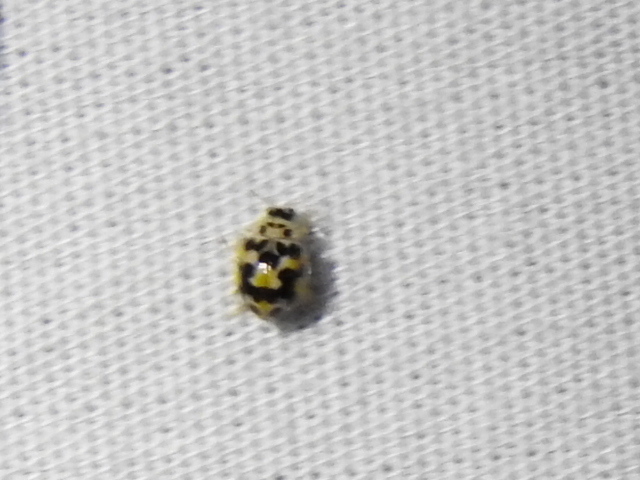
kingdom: Animalia
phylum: Arthropoda
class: Insecta
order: Coleoptera
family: Coccinellidae
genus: Psyllobora
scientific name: Psyllobora vigintimaculata
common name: Ladybird beetle
